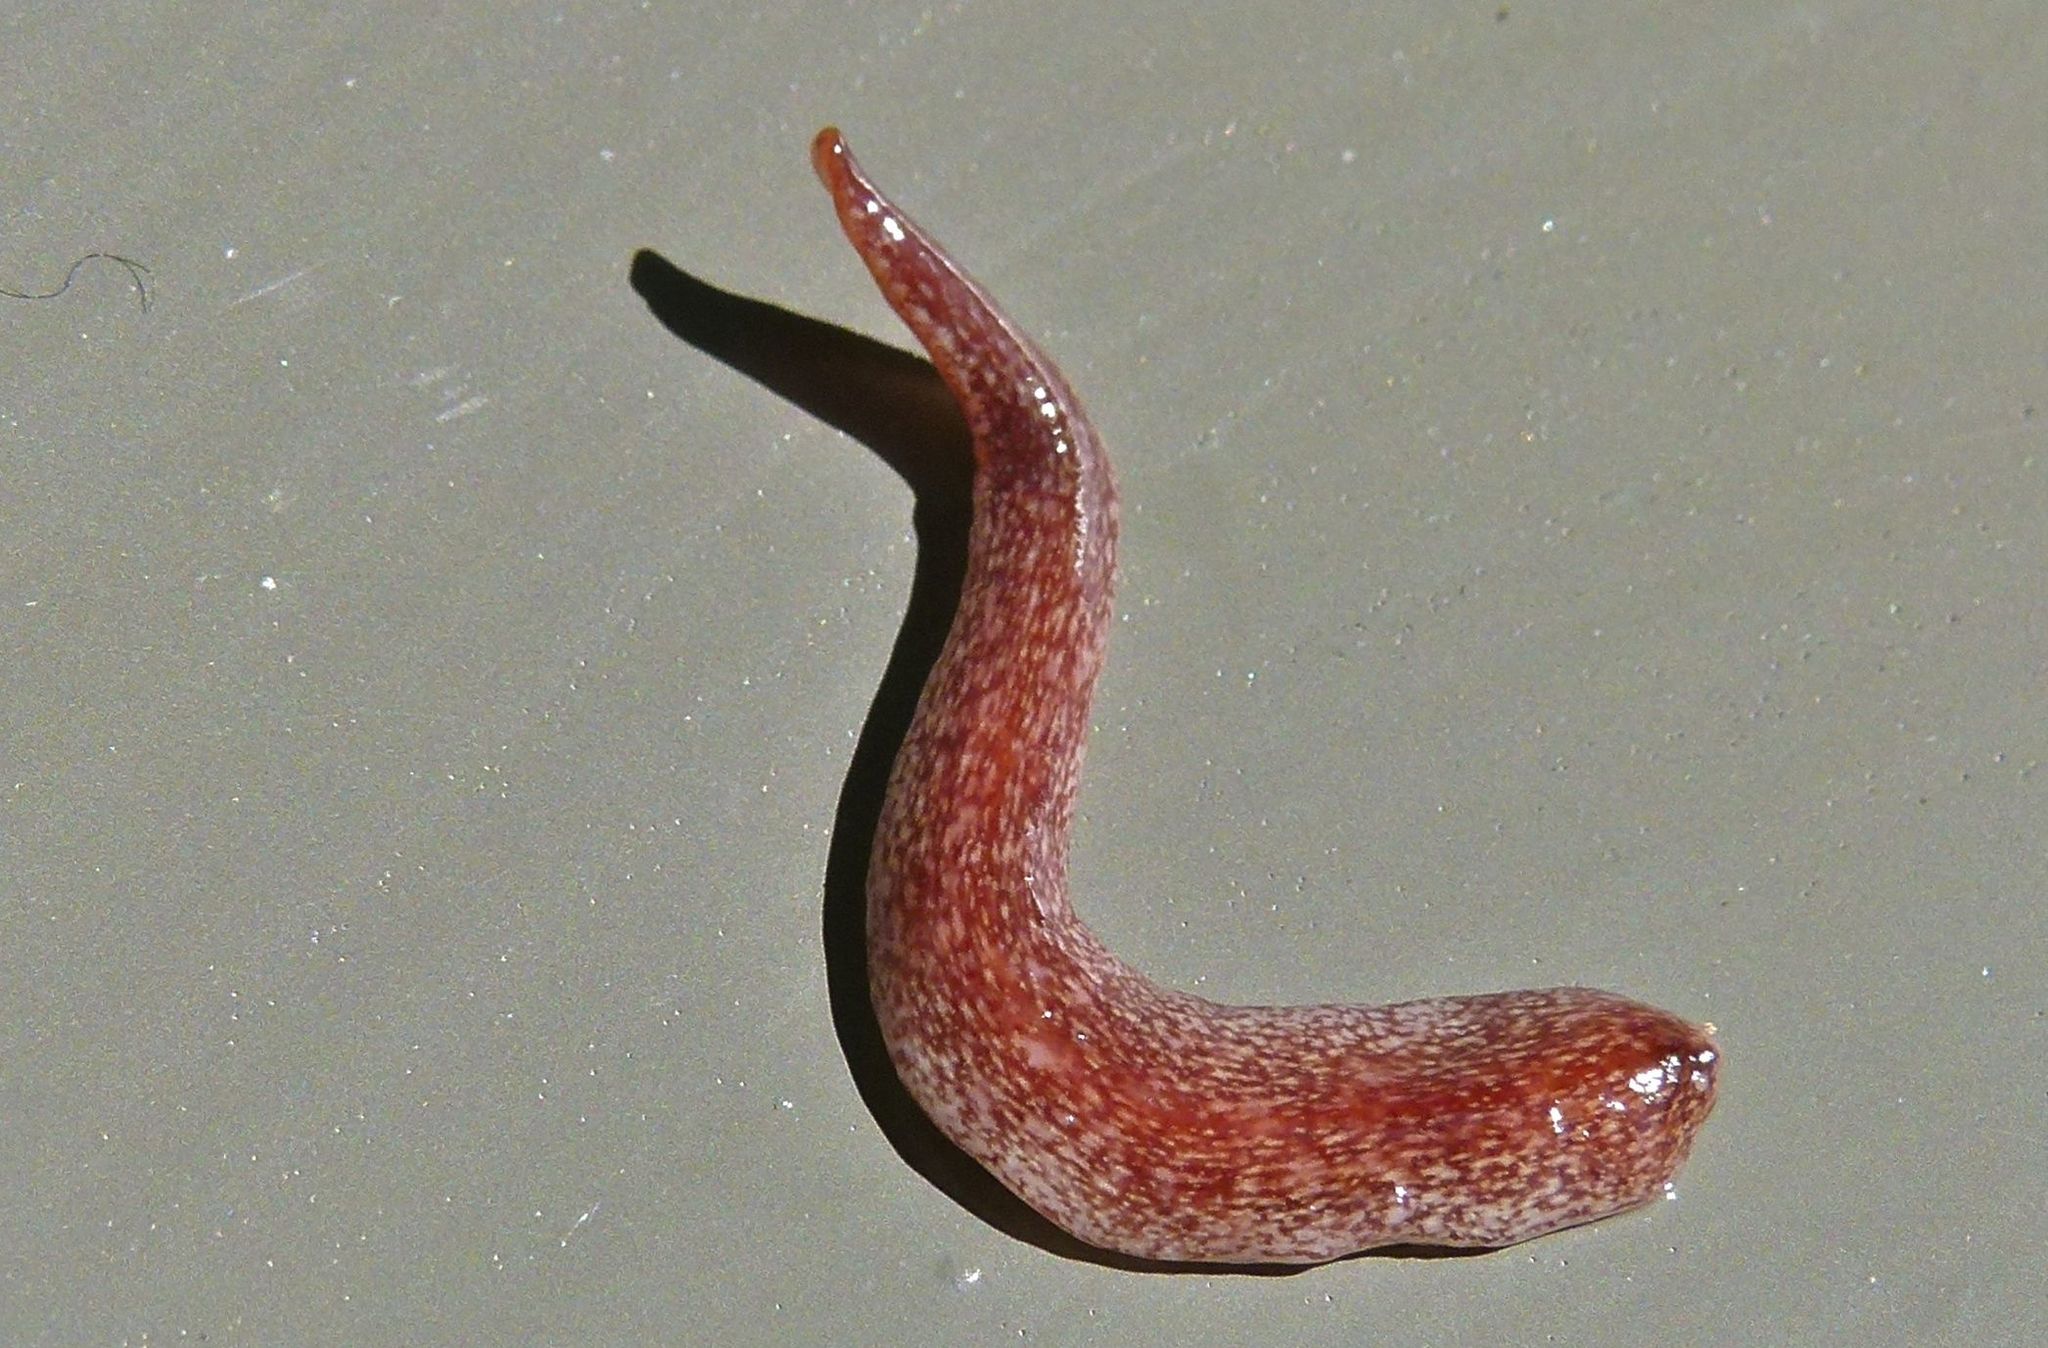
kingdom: Animalia
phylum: Platyhelminthes
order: Tricladida
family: Geoplanidae
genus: Australopacifica
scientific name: Australopacifica spectabilis
